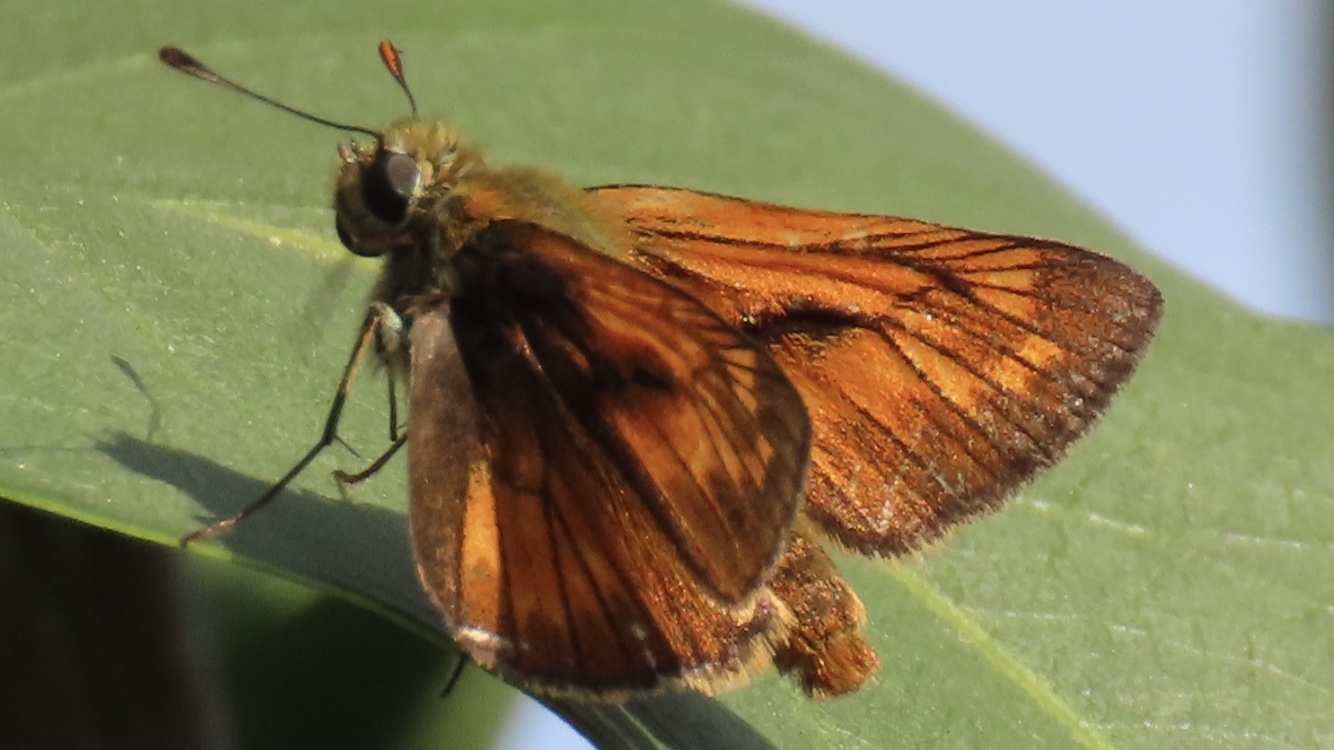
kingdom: Animalia
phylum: Arthropoda
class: Insecta
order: Lepidoptera
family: Hesperiidae
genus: Ochlodes
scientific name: Ochlodes venata
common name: Large skipper
